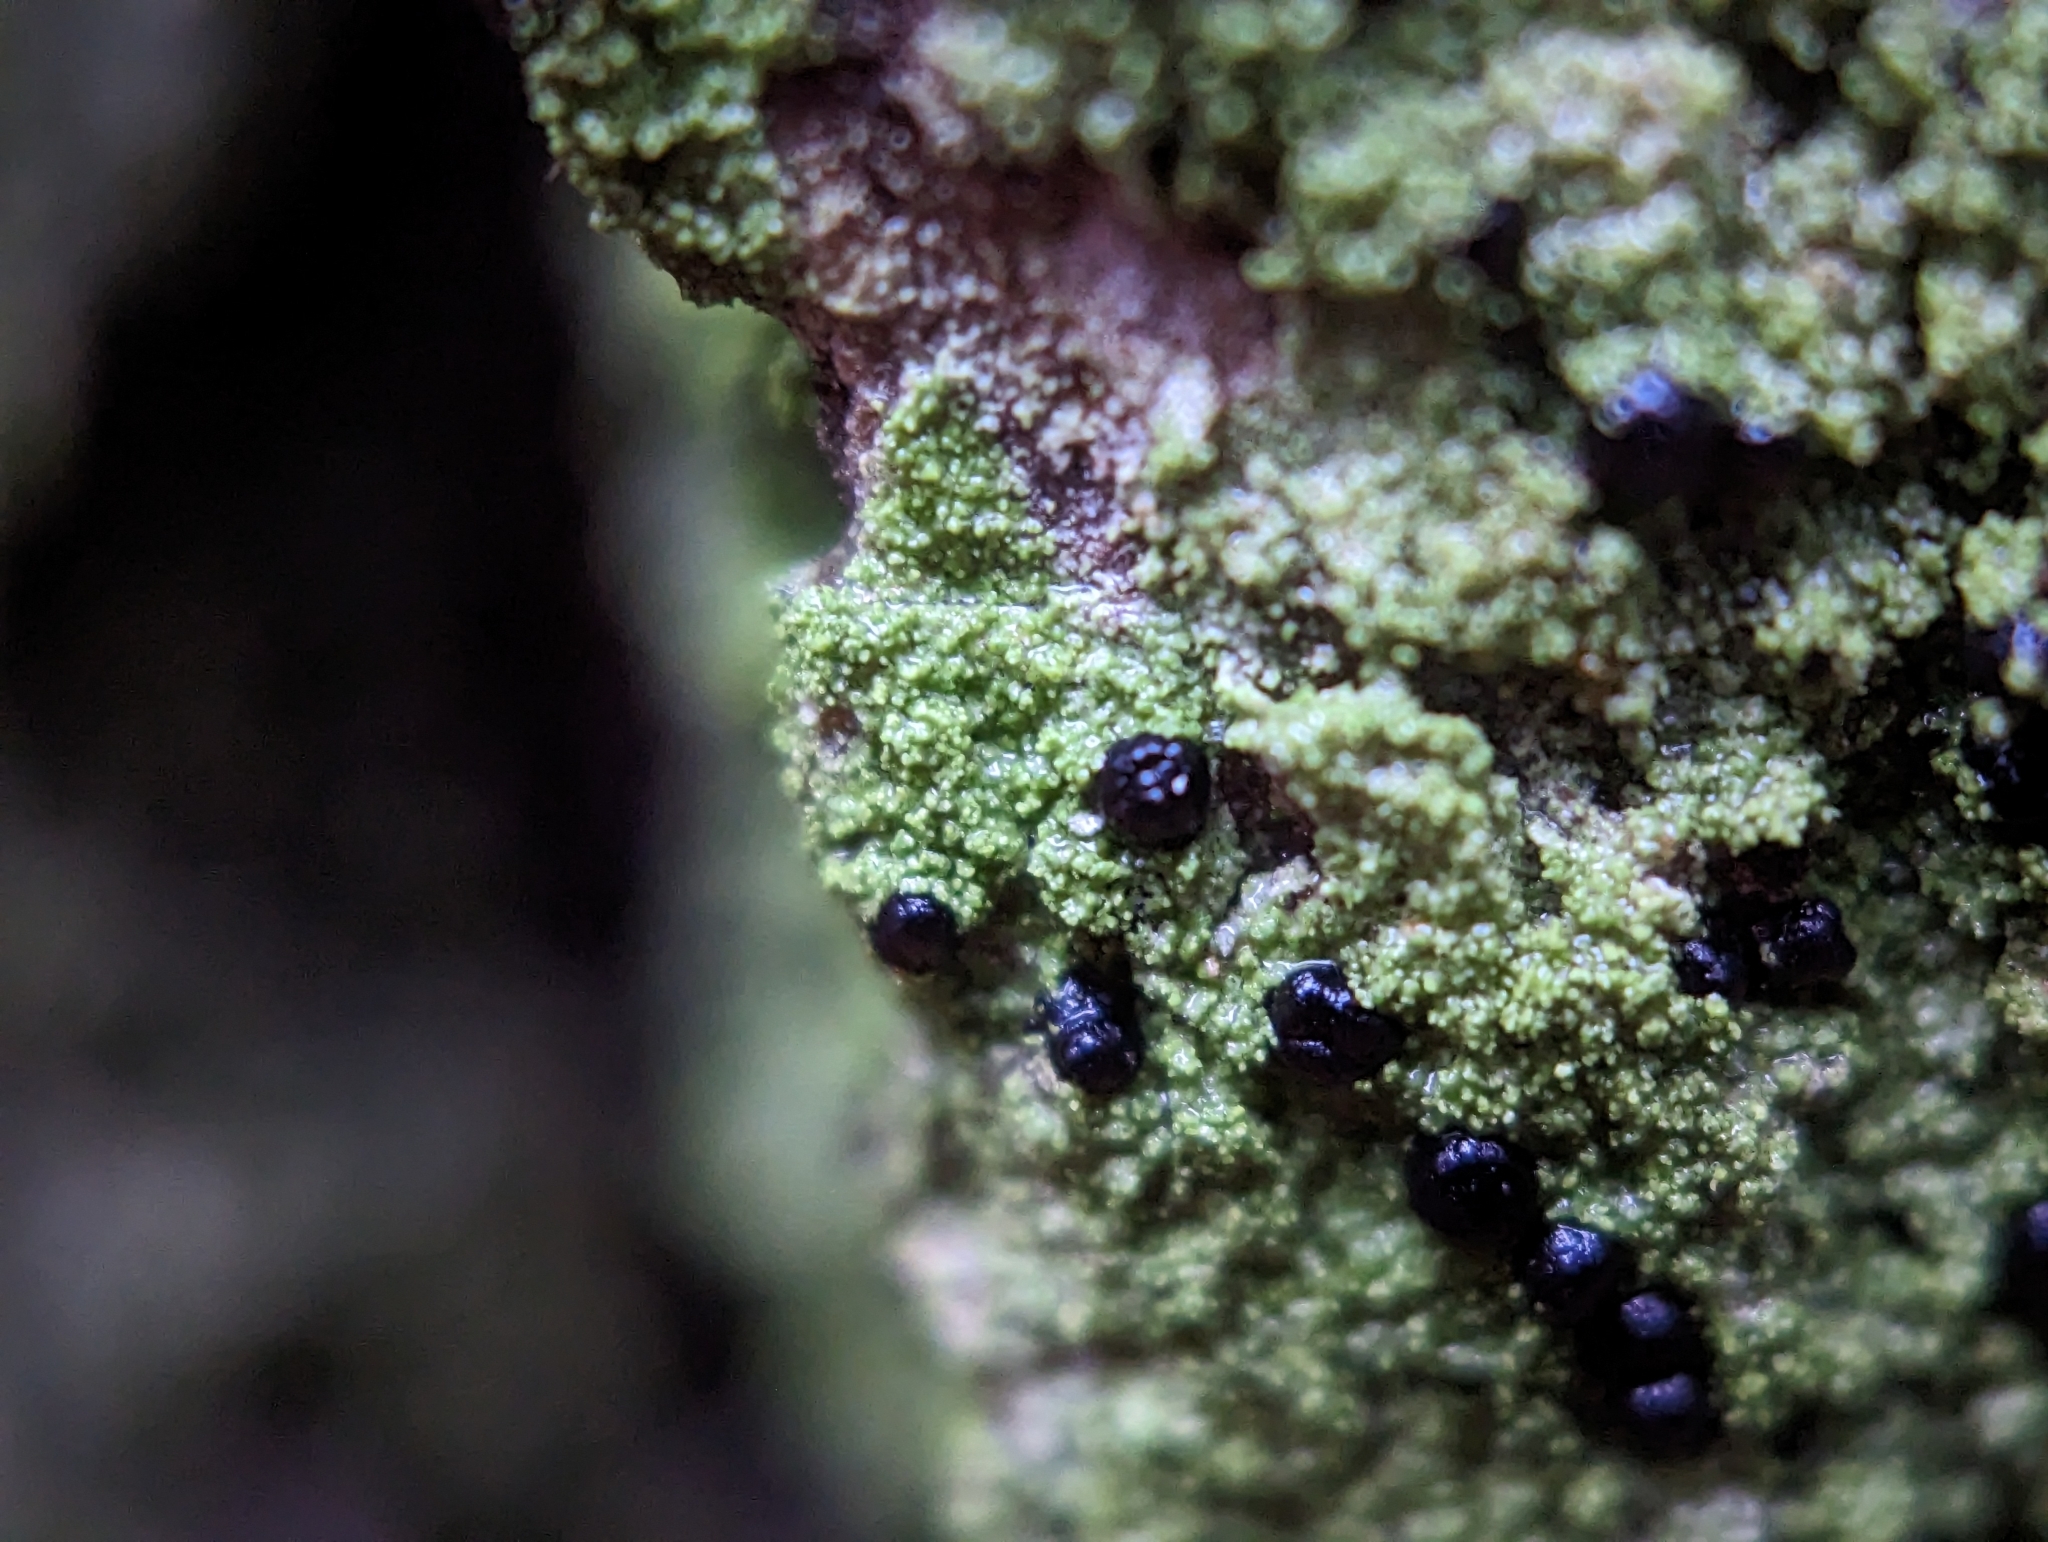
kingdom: Fungi
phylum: Ascomycota
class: Lecanoromycetes
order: Lecanorales
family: Ramalinaceae
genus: Bacidia
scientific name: Bacidia schweinitzii
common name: Surprise lichen
